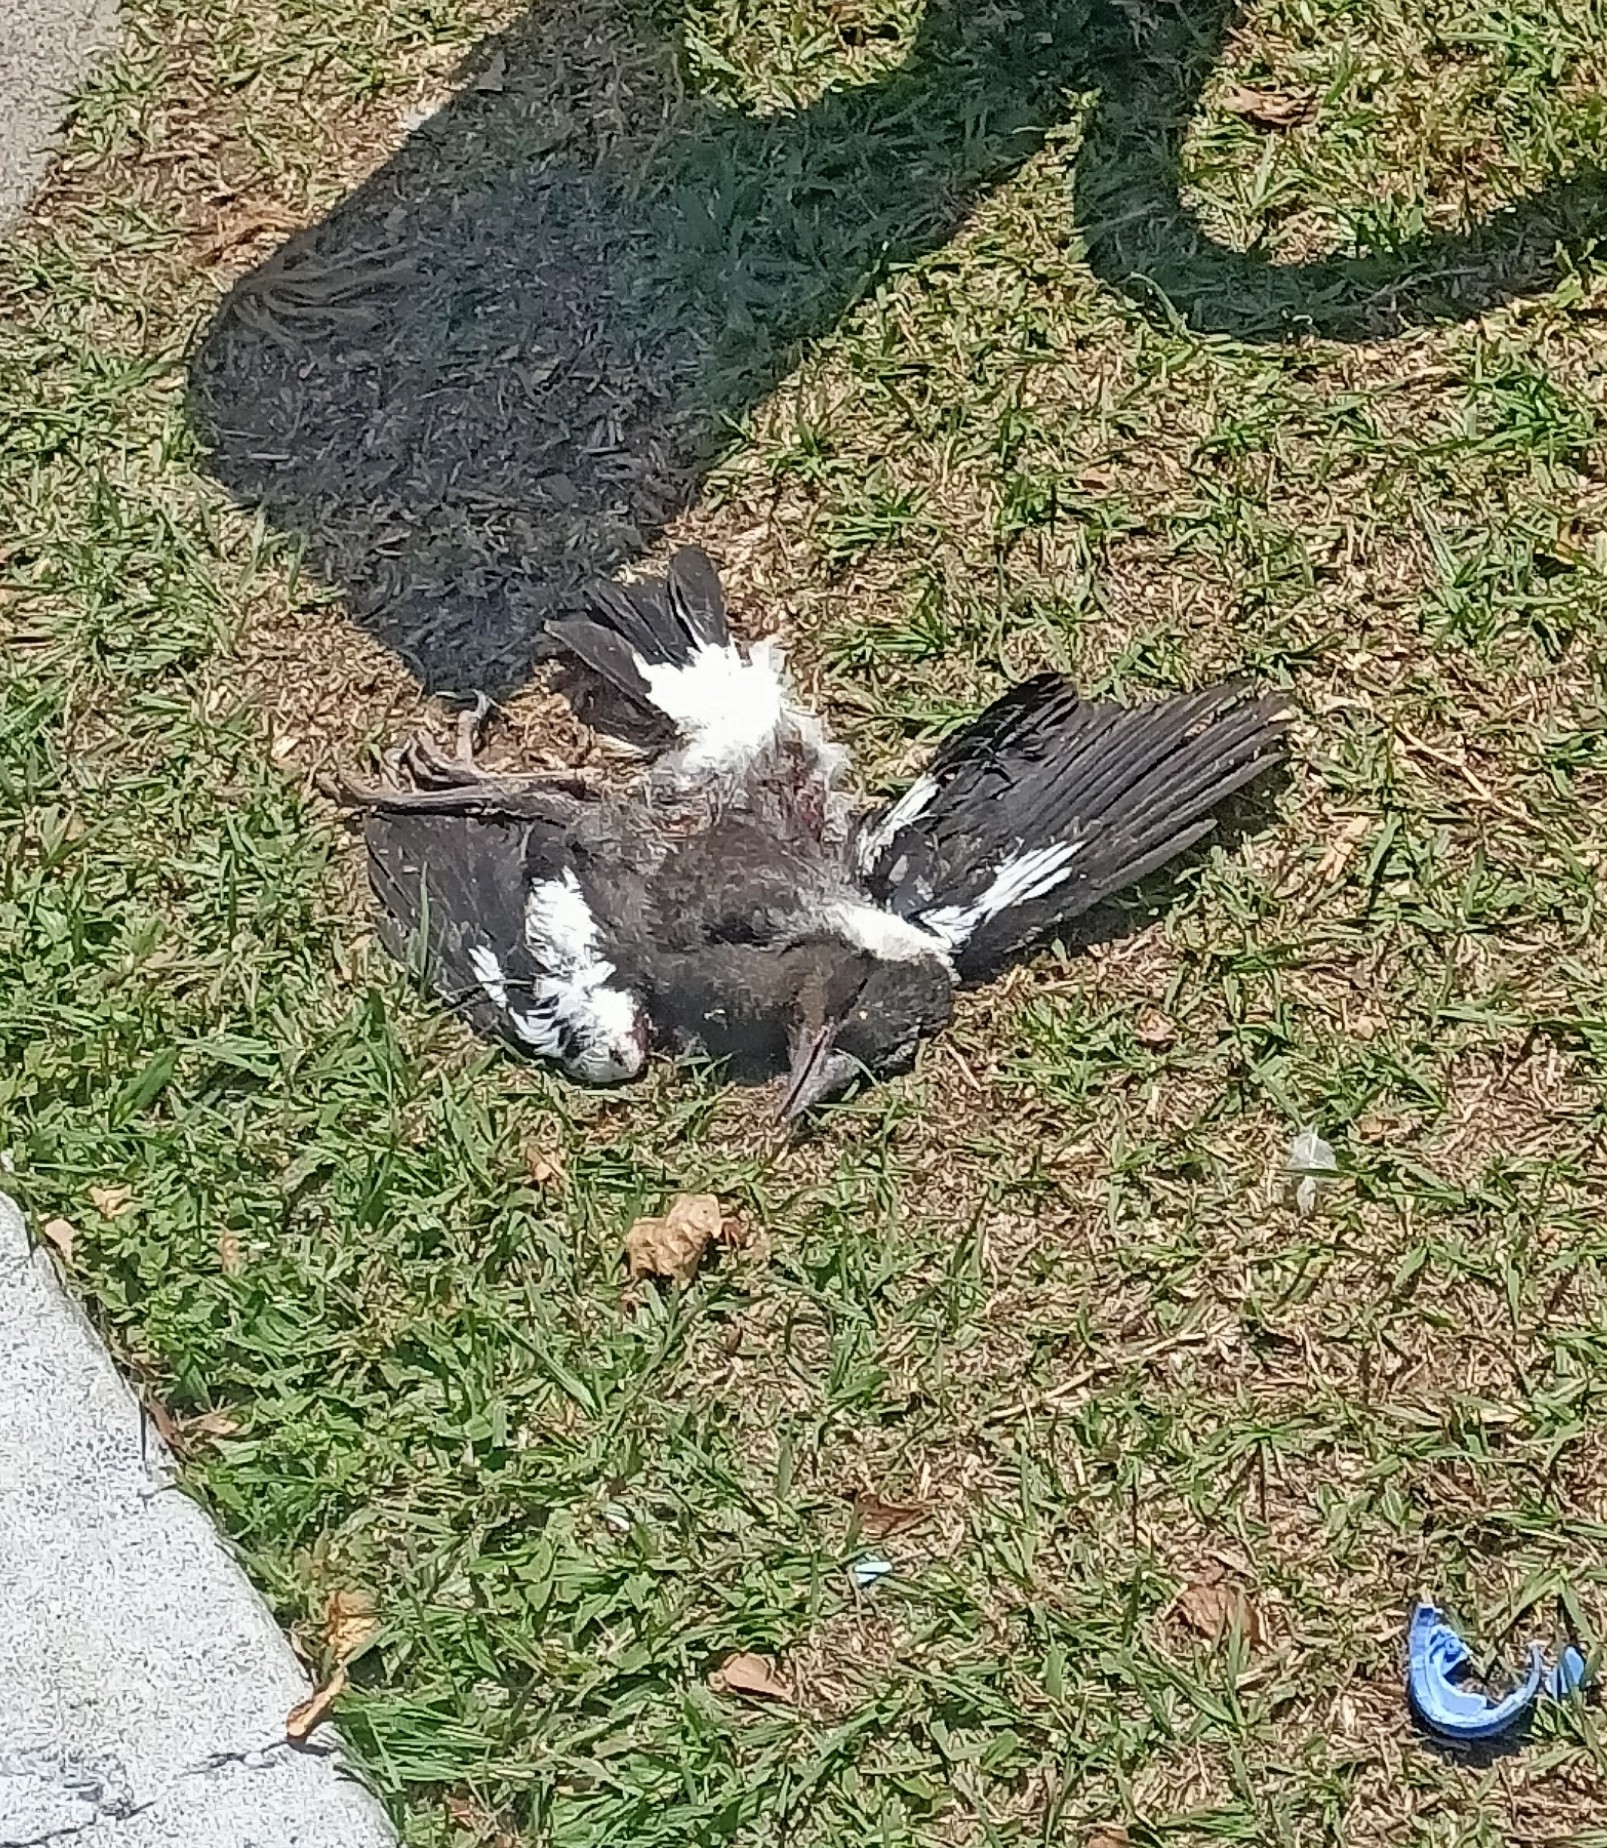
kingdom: Animalia
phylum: Chordata
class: Aves
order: Passeriformes
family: Cracticidae
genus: Gymnorhina
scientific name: Gymnorhina tibicen
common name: Australian magpie
